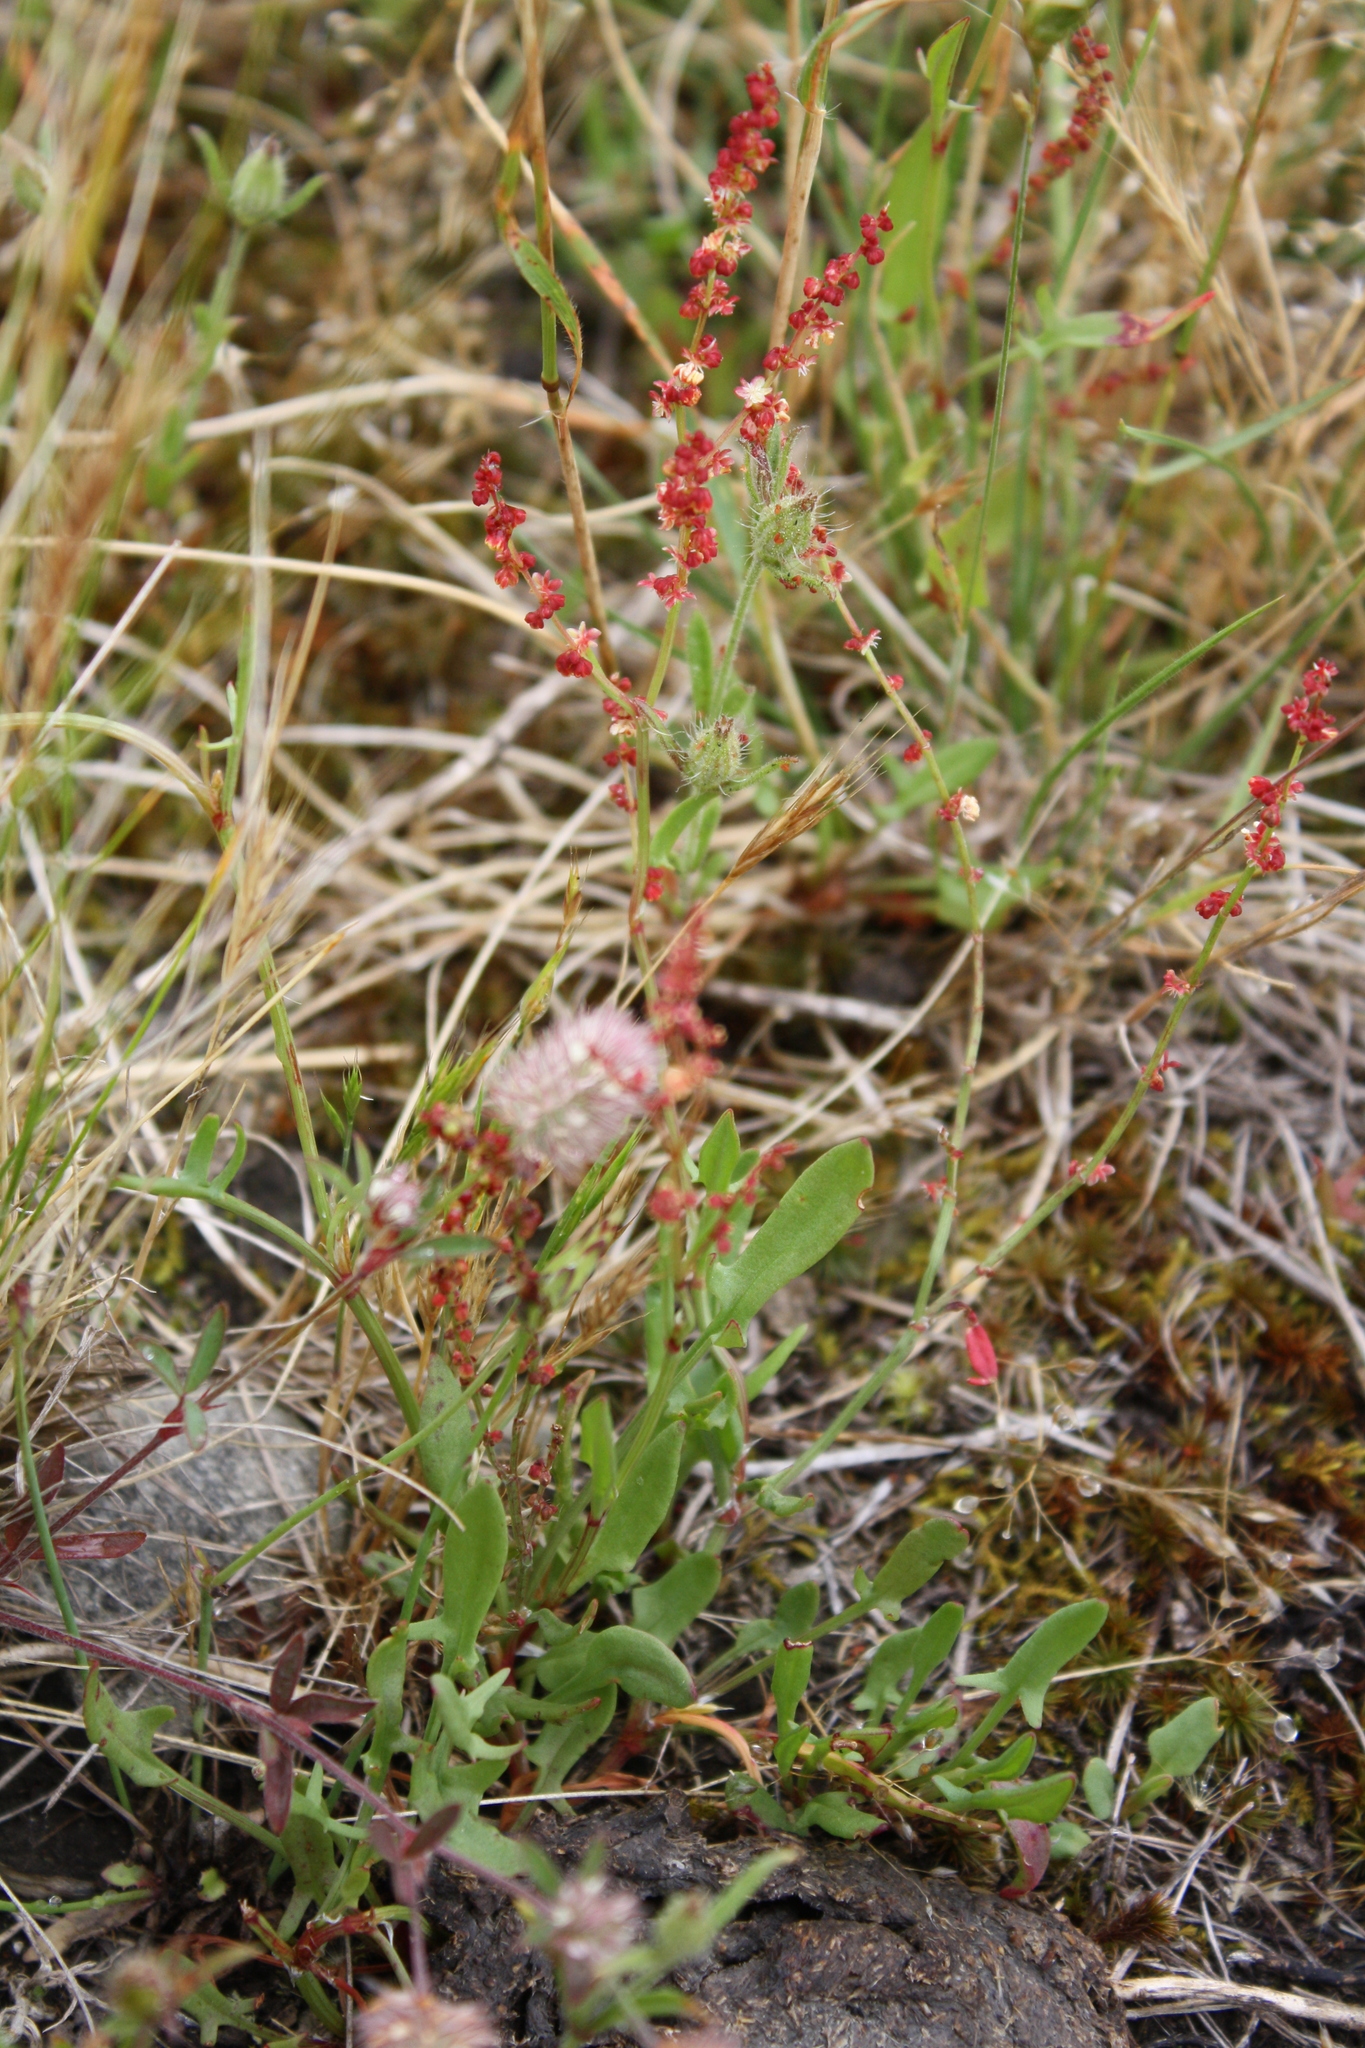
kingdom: Plantae
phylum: Tracheophyta
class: Magnoliopsida
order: Caryophyllales
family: Polygonaceae
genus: Rumex
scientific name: Rumex acetosella
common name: Common sheep sorrel
